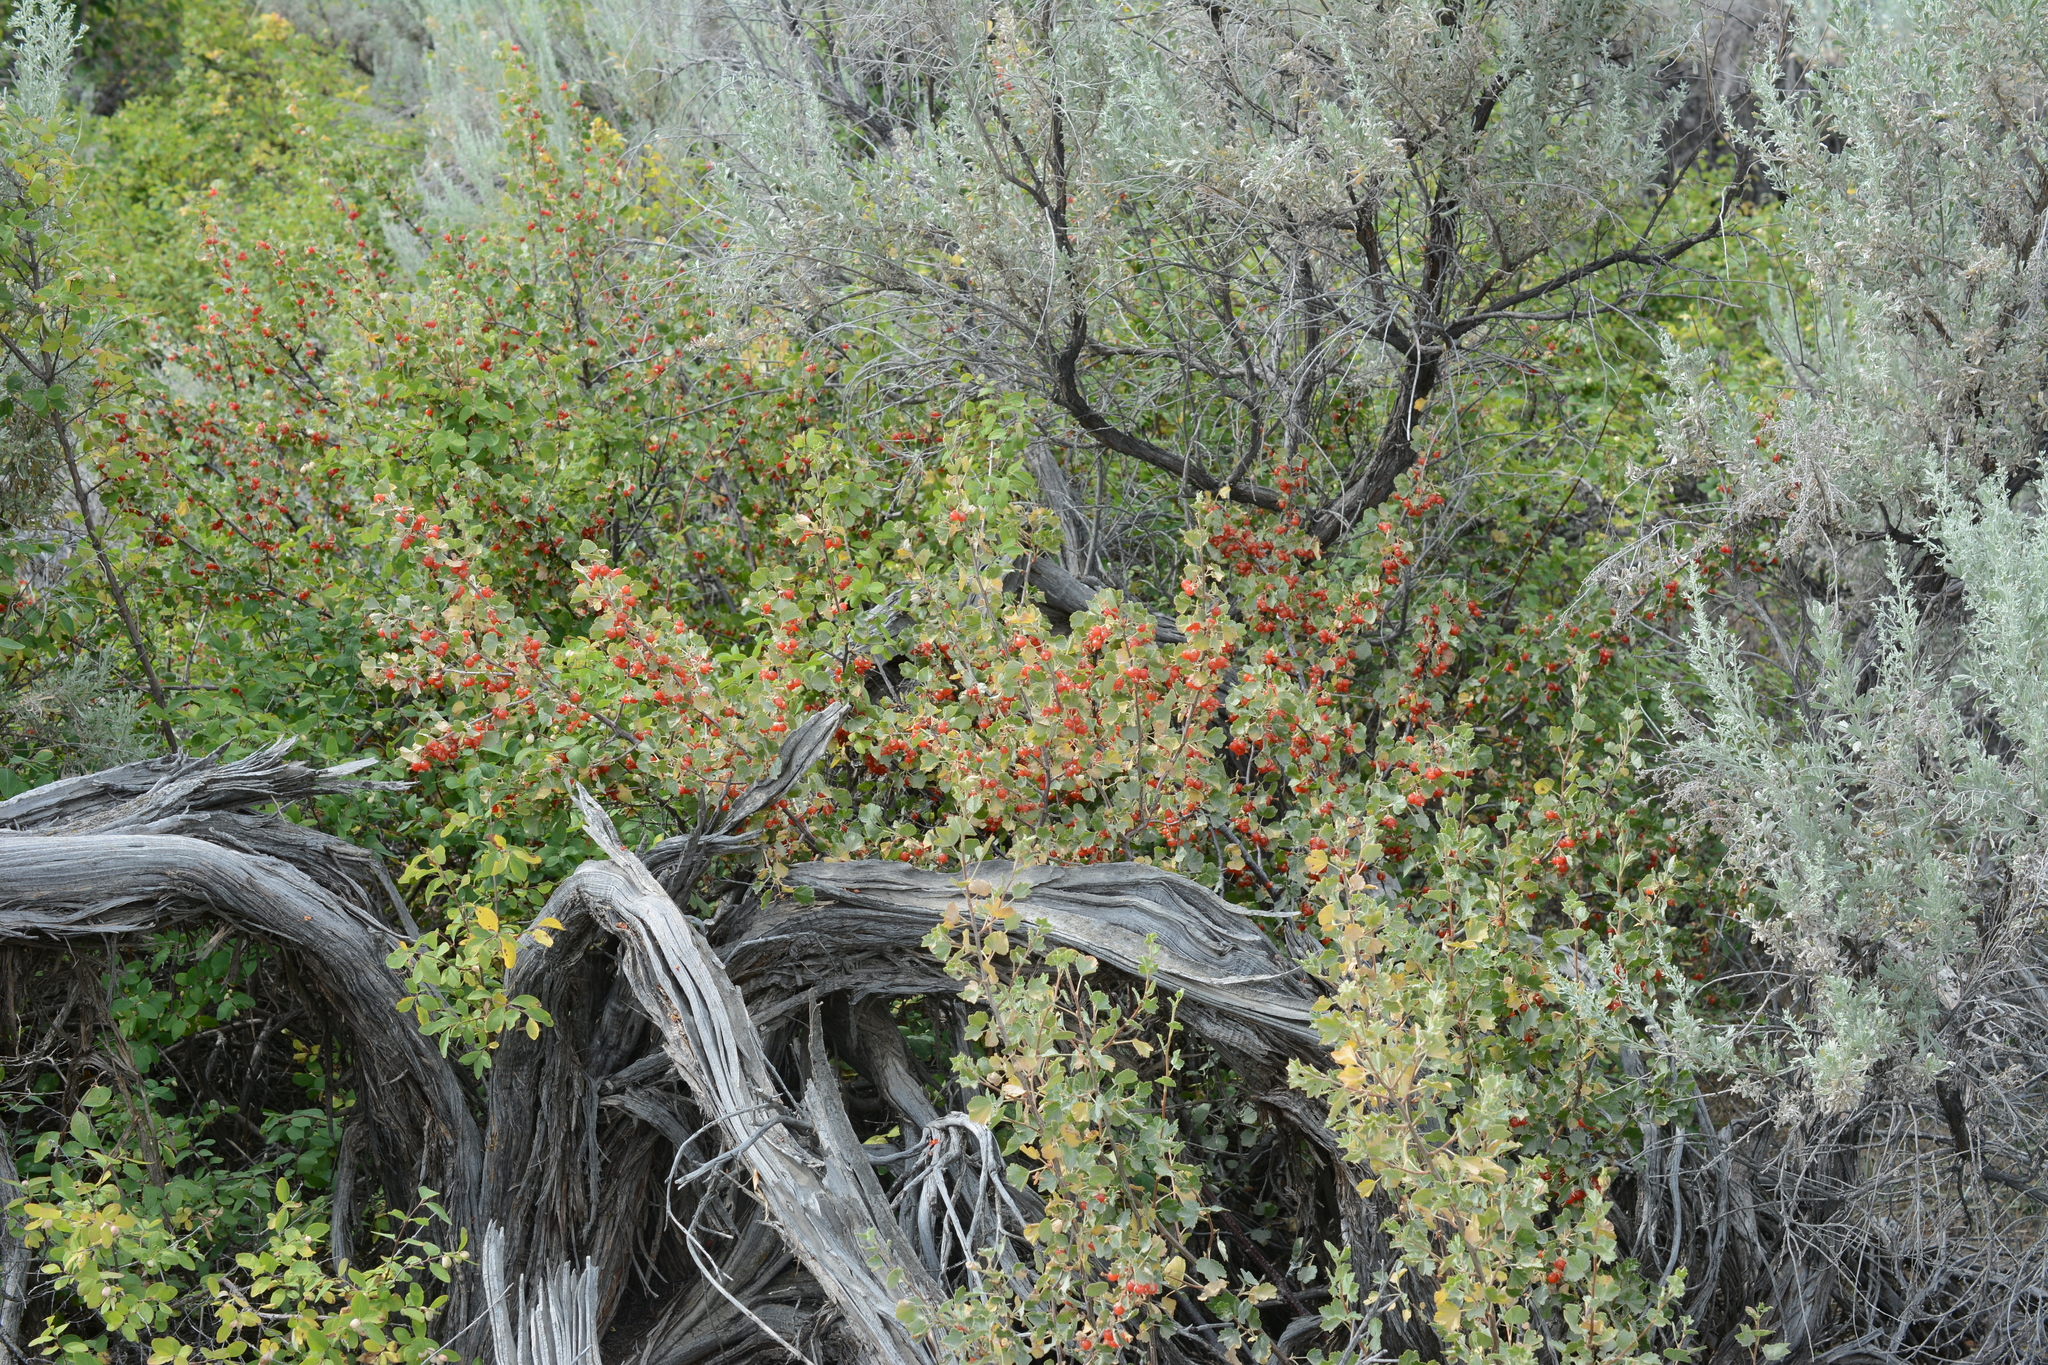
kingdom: Plantae
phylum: Tracheophyta
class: Magnoliopsida
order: Saxifragales
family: Grossulariaceae
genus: Ribes
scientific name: Ribes cereum
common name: Wax currant
